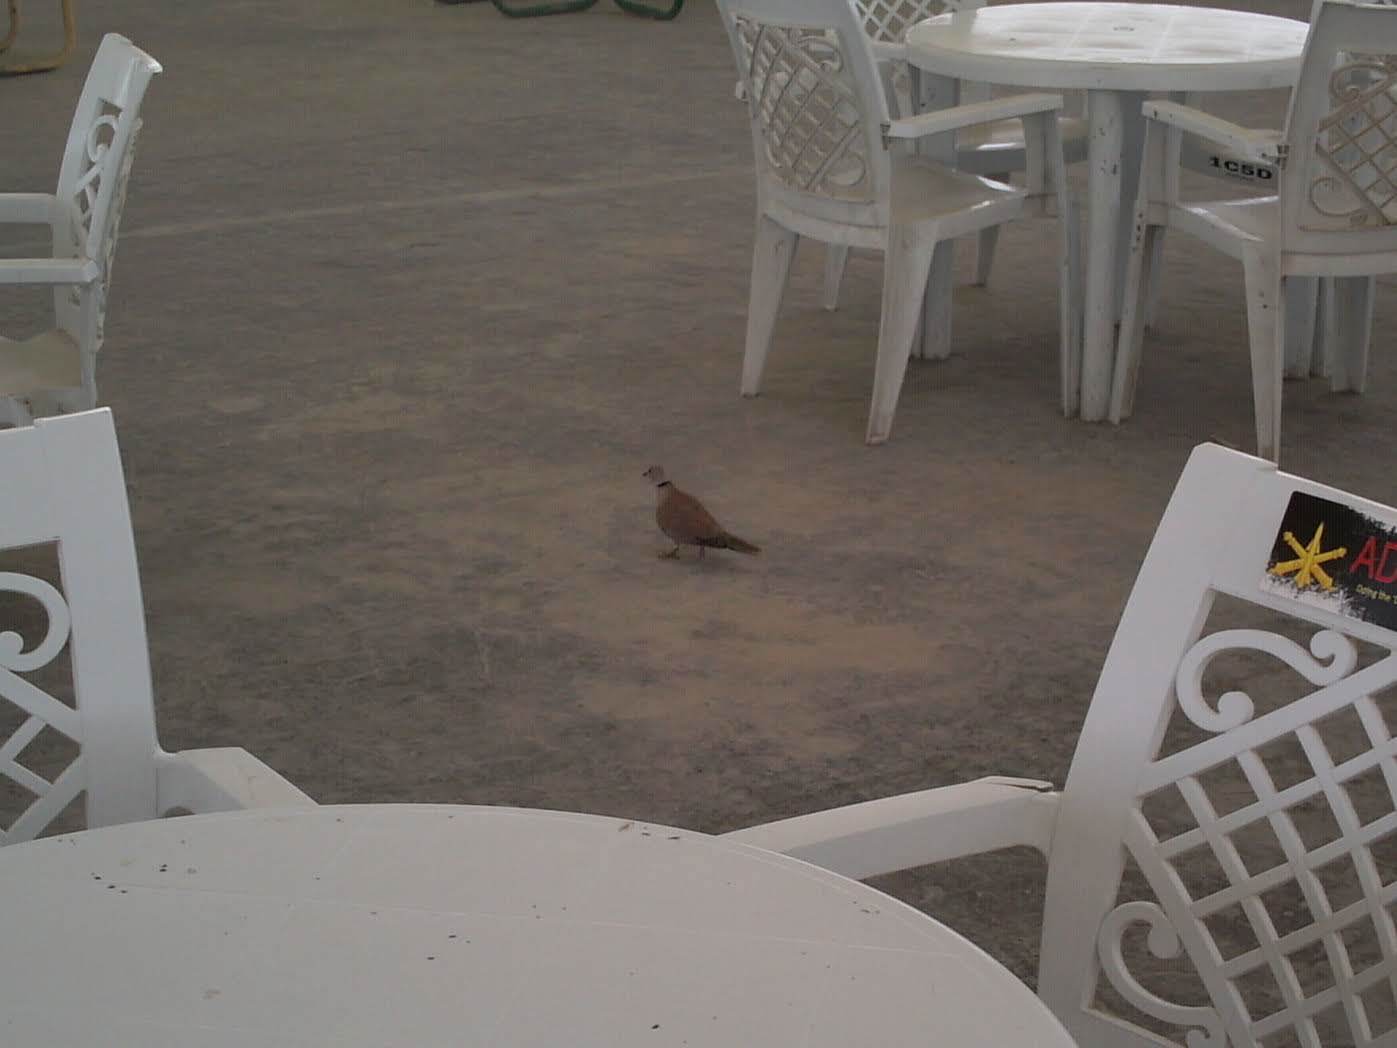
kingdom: Animalia
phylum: Chordata
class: Aves
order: Columbiformes
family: Columbidae
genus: Streptopelia
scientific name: Streptopelia decaocto
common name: Eurasian collared dove
